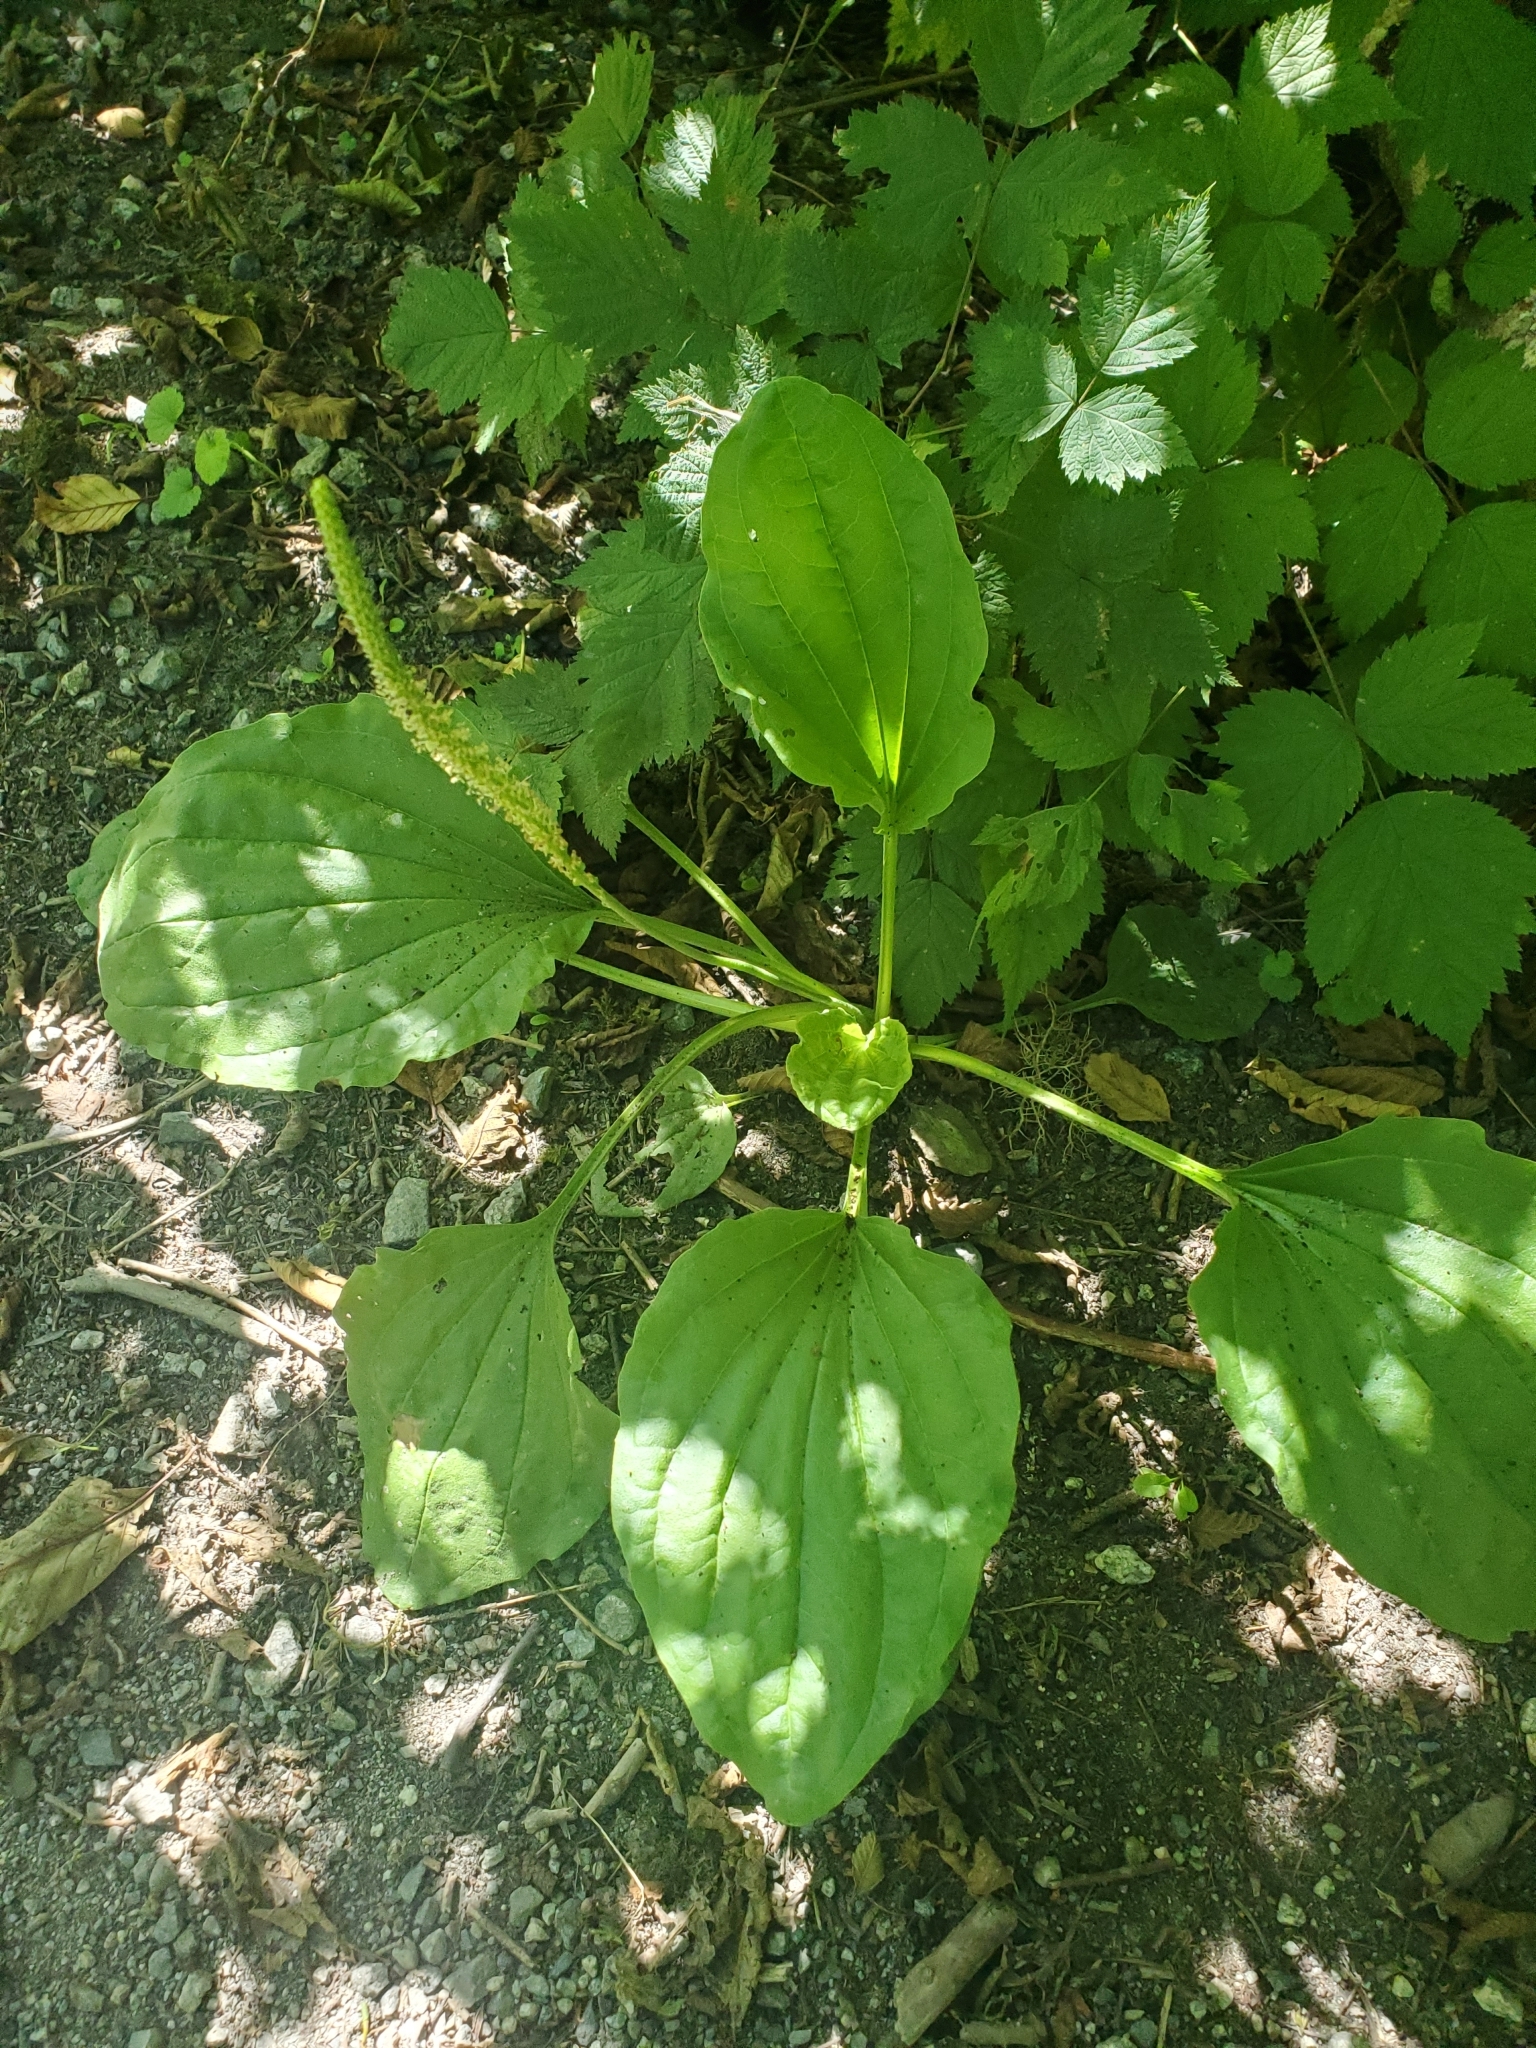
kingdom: Plantae
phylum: Tracheophyta
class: Magnoliopsida
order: Lamiales
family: Plantaginaceae
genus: Plantago
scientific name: Plantago major
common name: Common plantain
